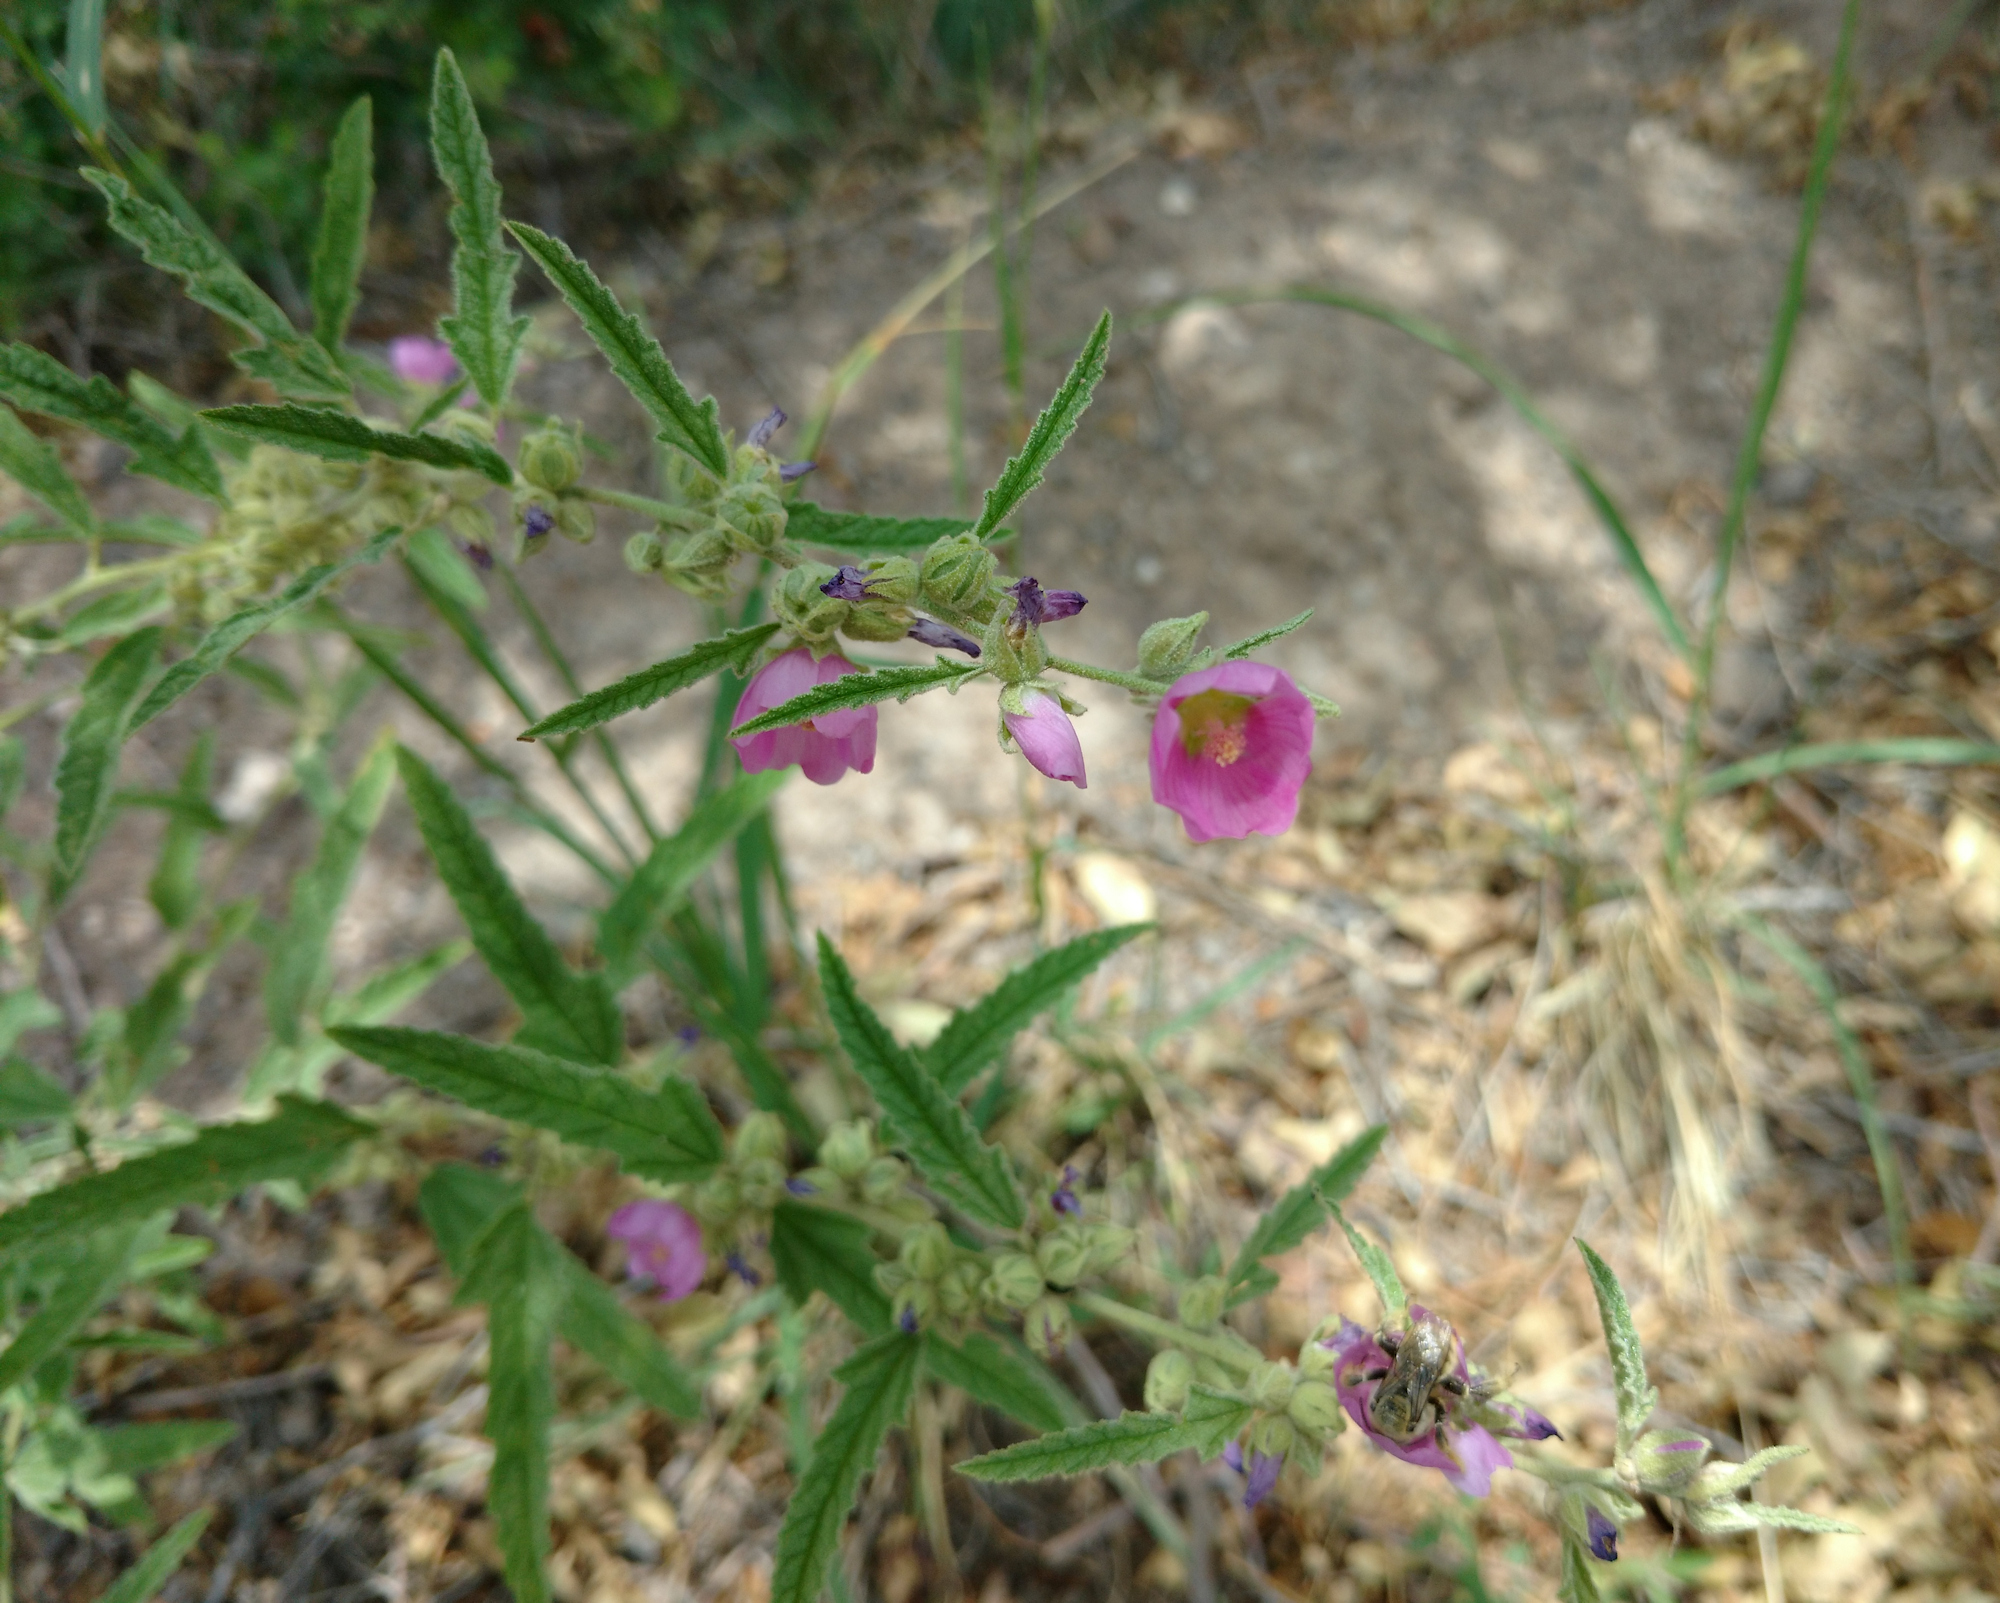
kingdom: Plantae
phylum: Tracheophyta
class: Magnoliopsida
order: Malvales
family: Malvaceae
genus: Sphaeralcea
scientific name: Sphaeralcea angustifolia
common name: Copper globe-mallow
